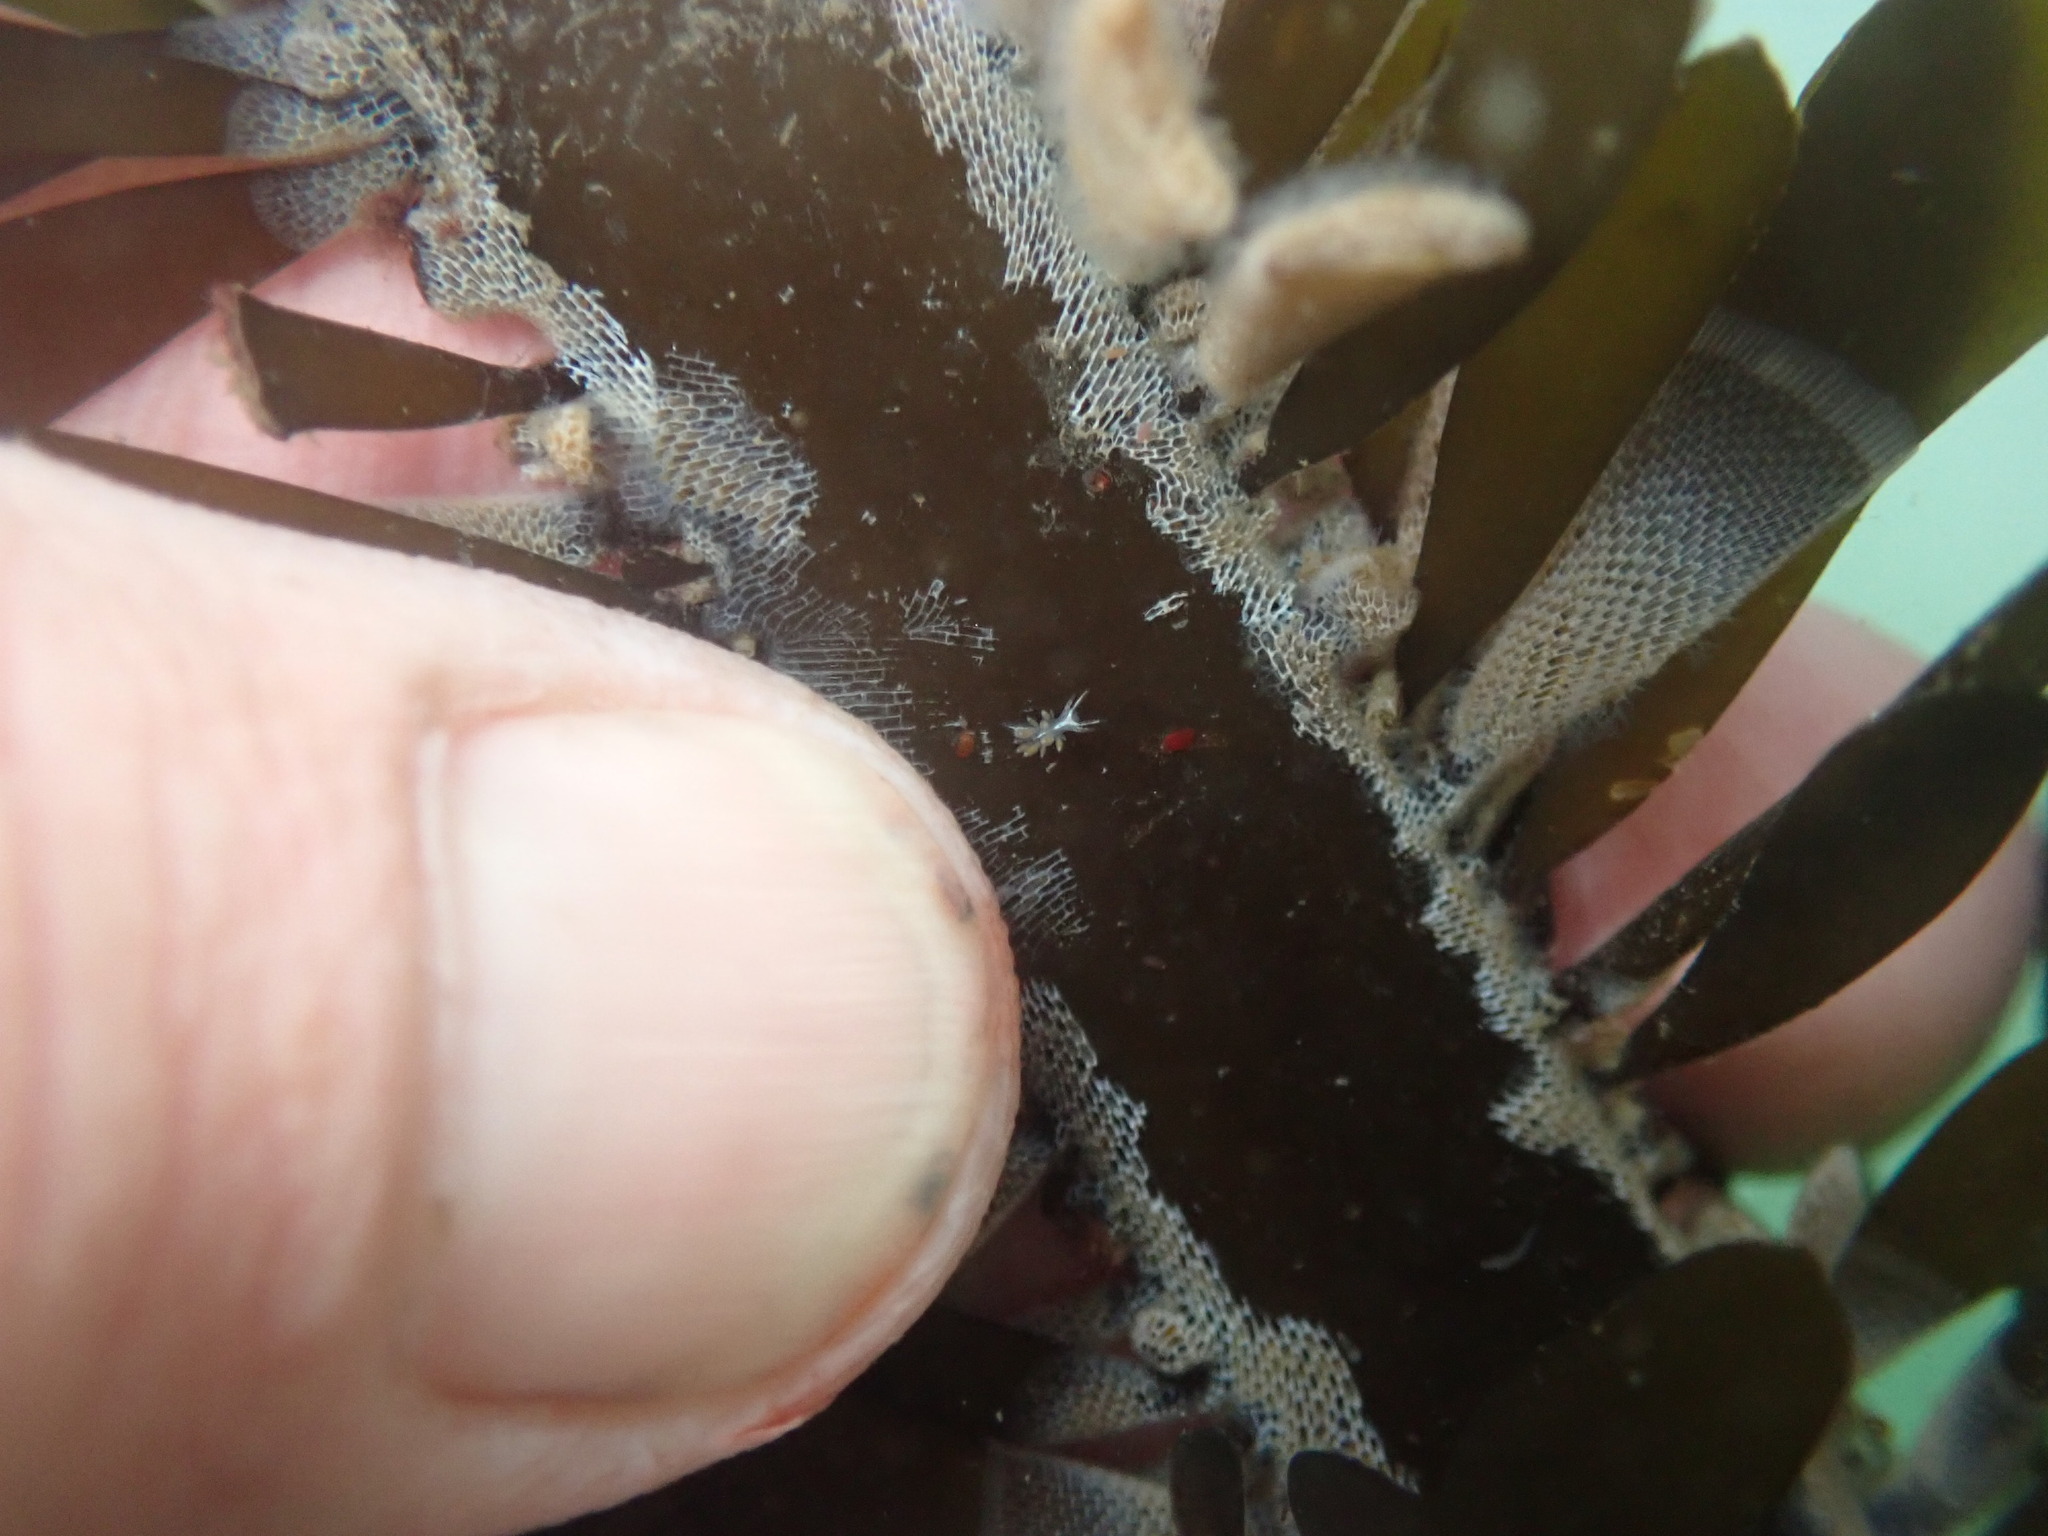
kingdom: Animalia
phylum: Mollusca
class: Gastropoda
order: Nudibranchia
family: Coryphellidae
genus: Coryphella
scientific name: Coryphella trilineata
